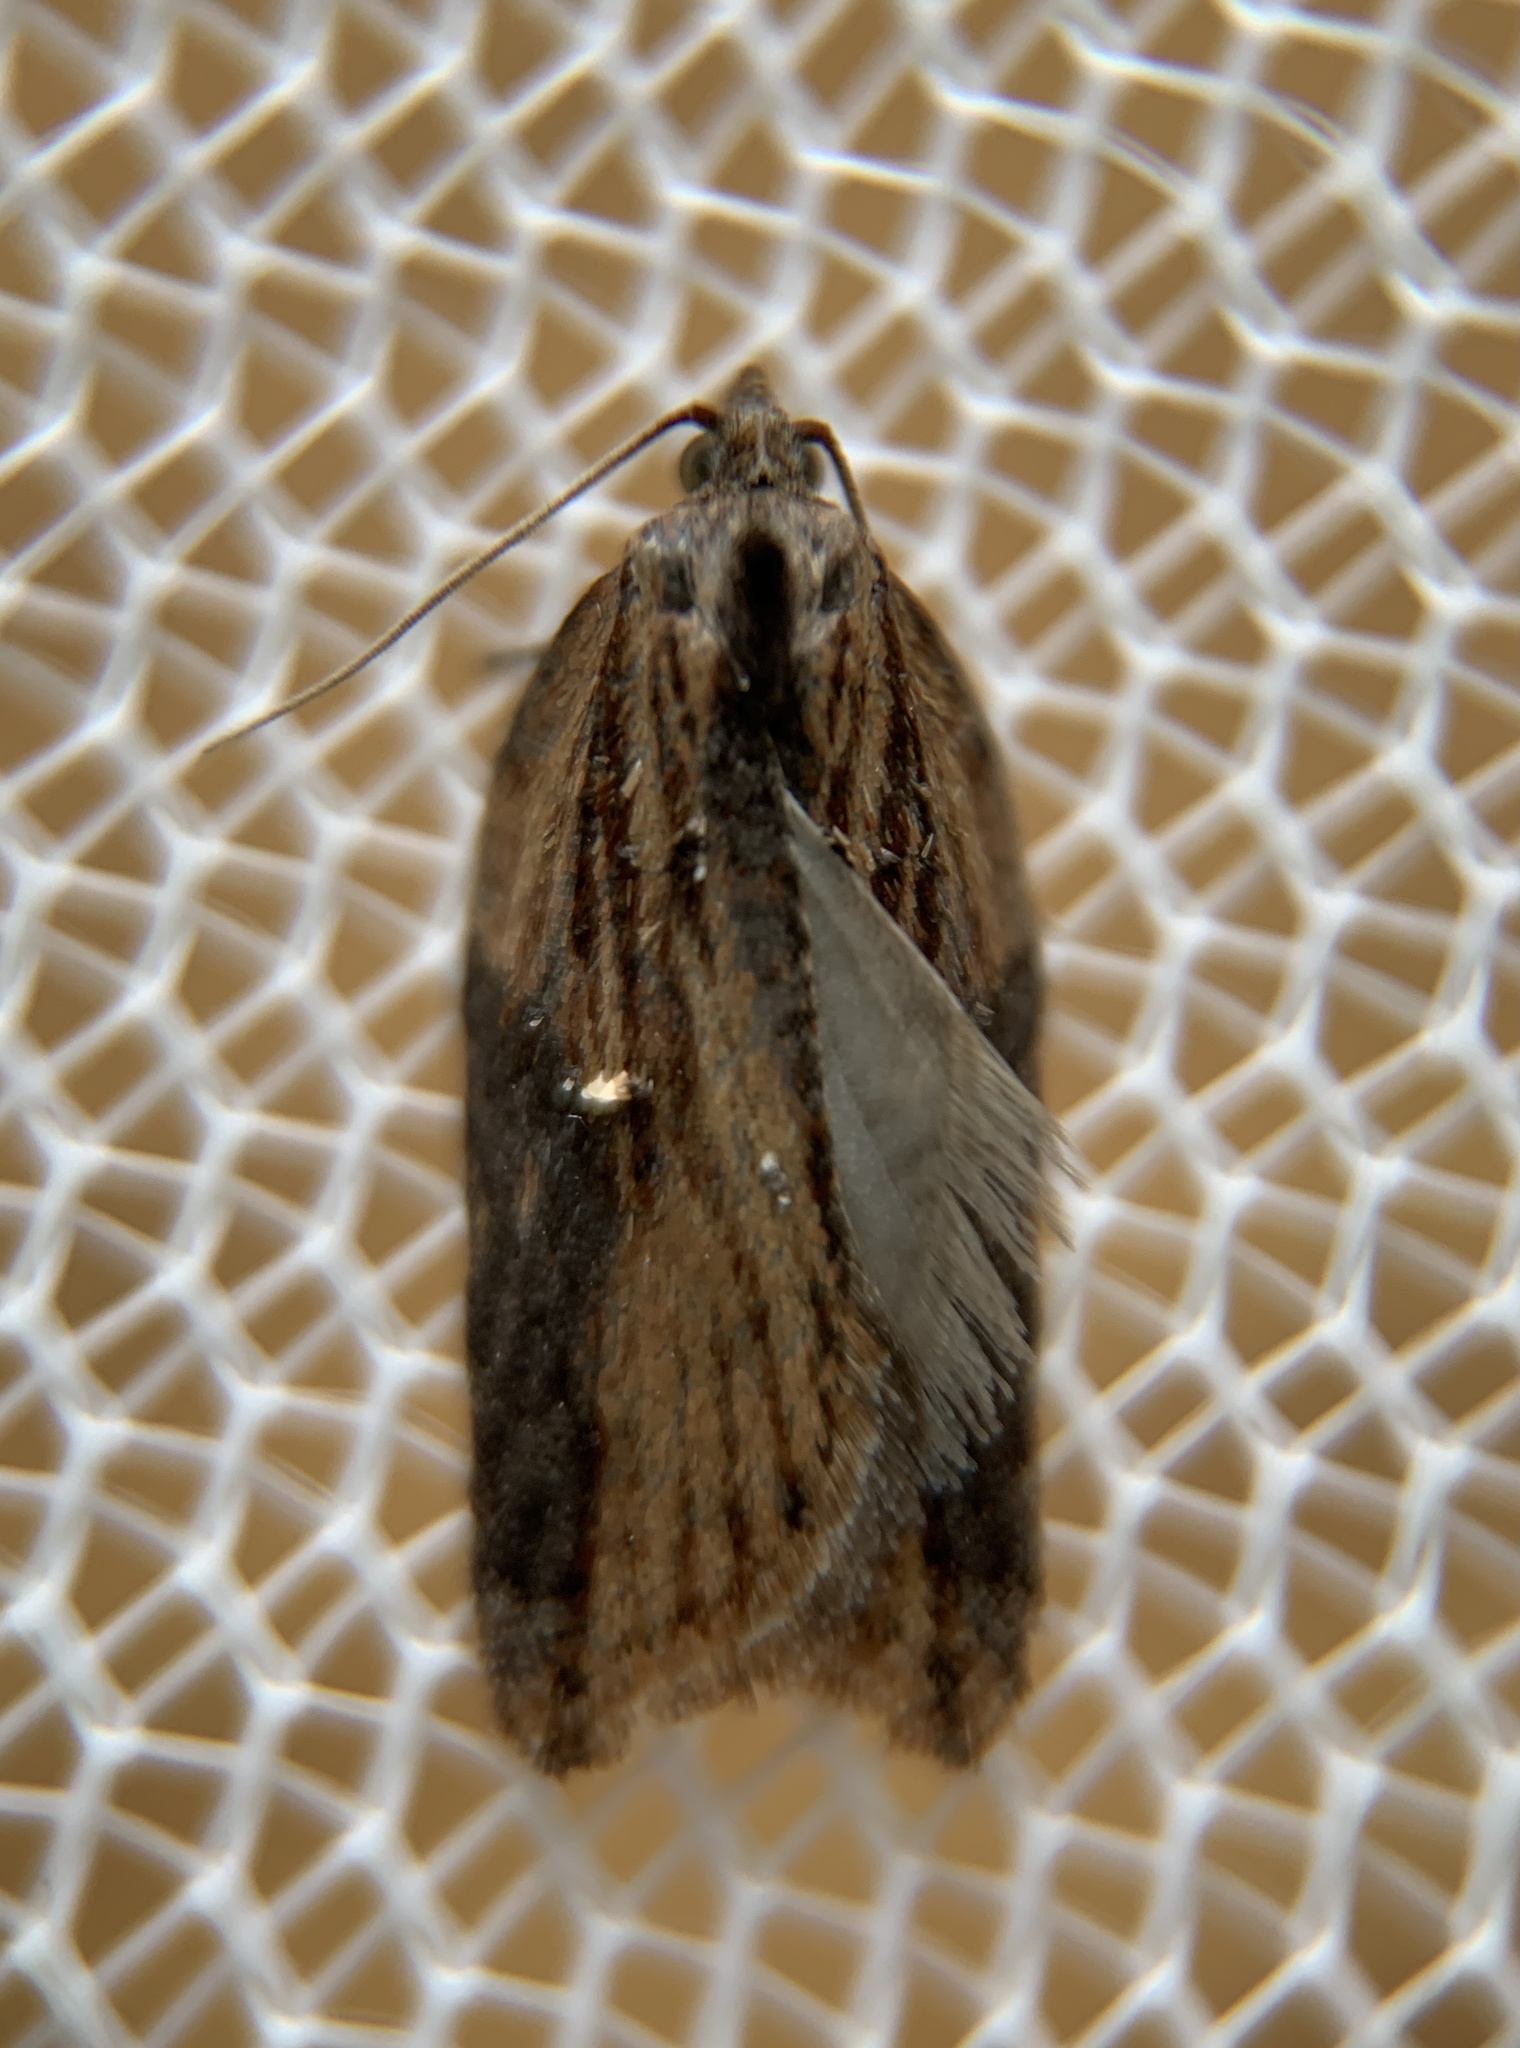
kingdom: Animalia
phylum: Arthropoda
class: Insecta
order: Lepidoptera
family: Tortricidae
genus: Acleris
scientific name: Acleris robinsoniana
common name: Robinson's acleris moth
